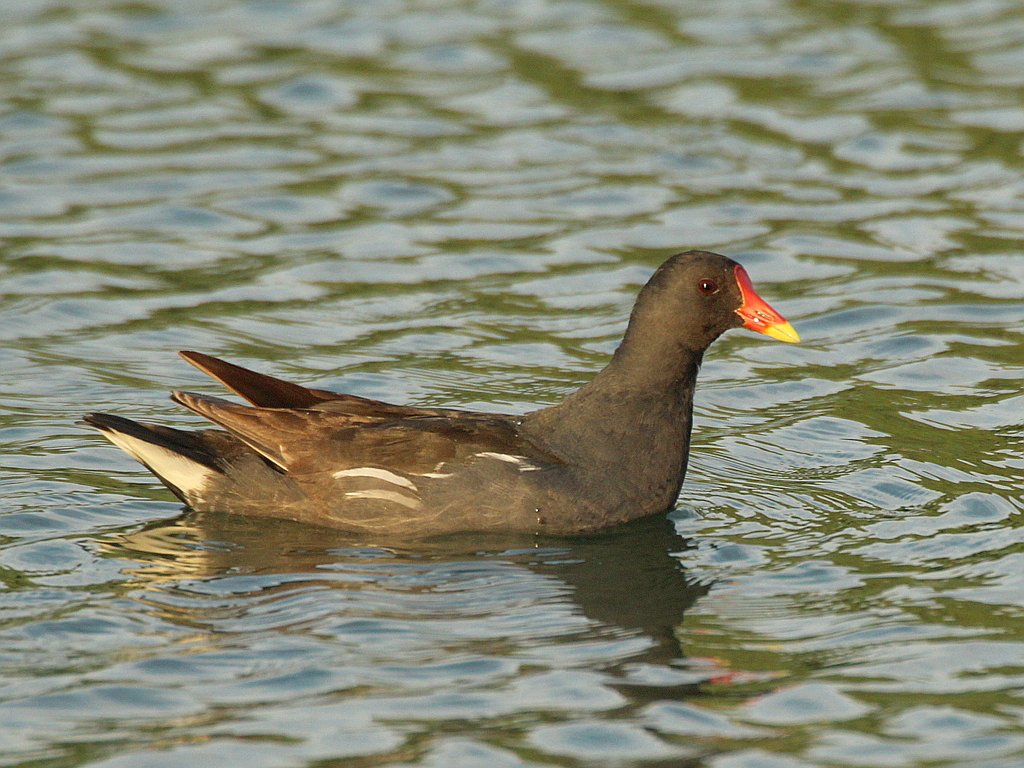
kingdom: Animalia
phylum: Chordata
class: Aves
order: Gruiformes
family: Rallidae
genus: Gallinula
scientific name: Gallinula chloropus
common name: Common moorhen
